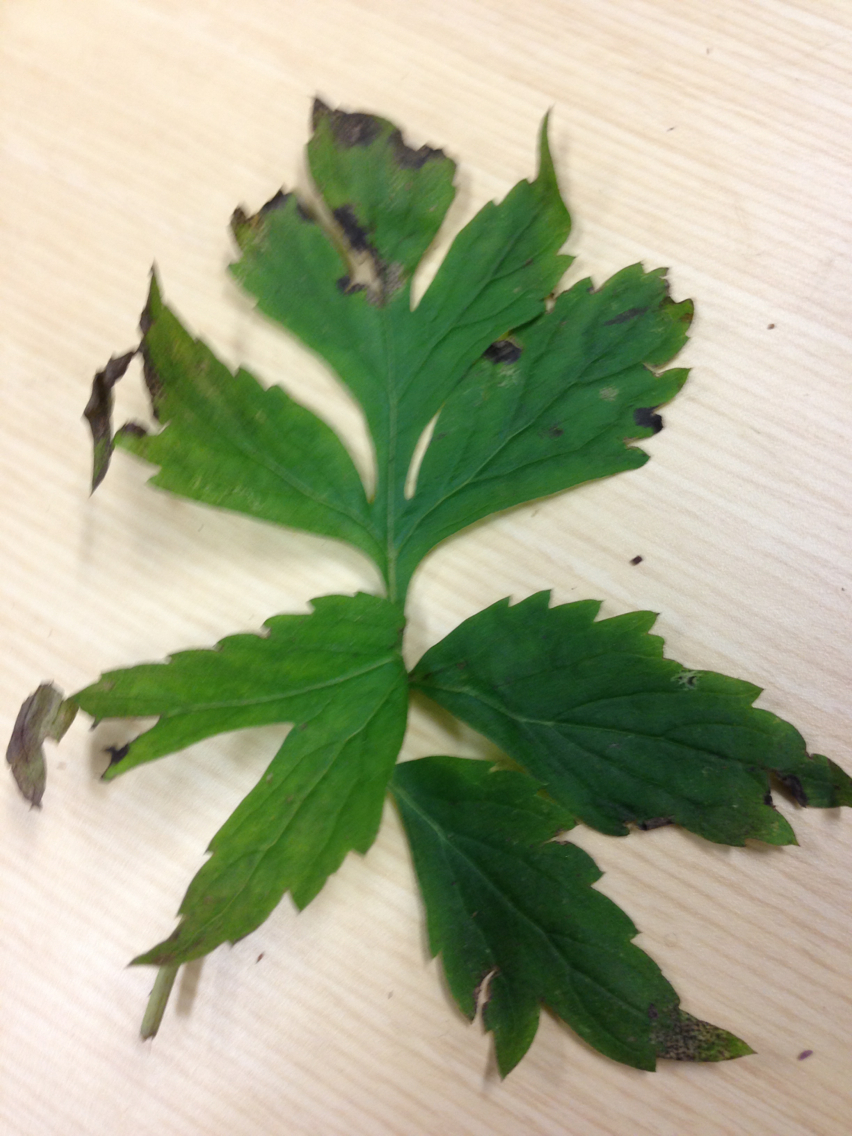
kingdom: Plantae
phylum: Tracheophyta
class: Magnoliopsida
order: Boraginales
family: Hydrophyllaceae
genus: Hydrophyllum
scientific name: Hydrophyllum virginianum
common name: Virginia waterleaf
